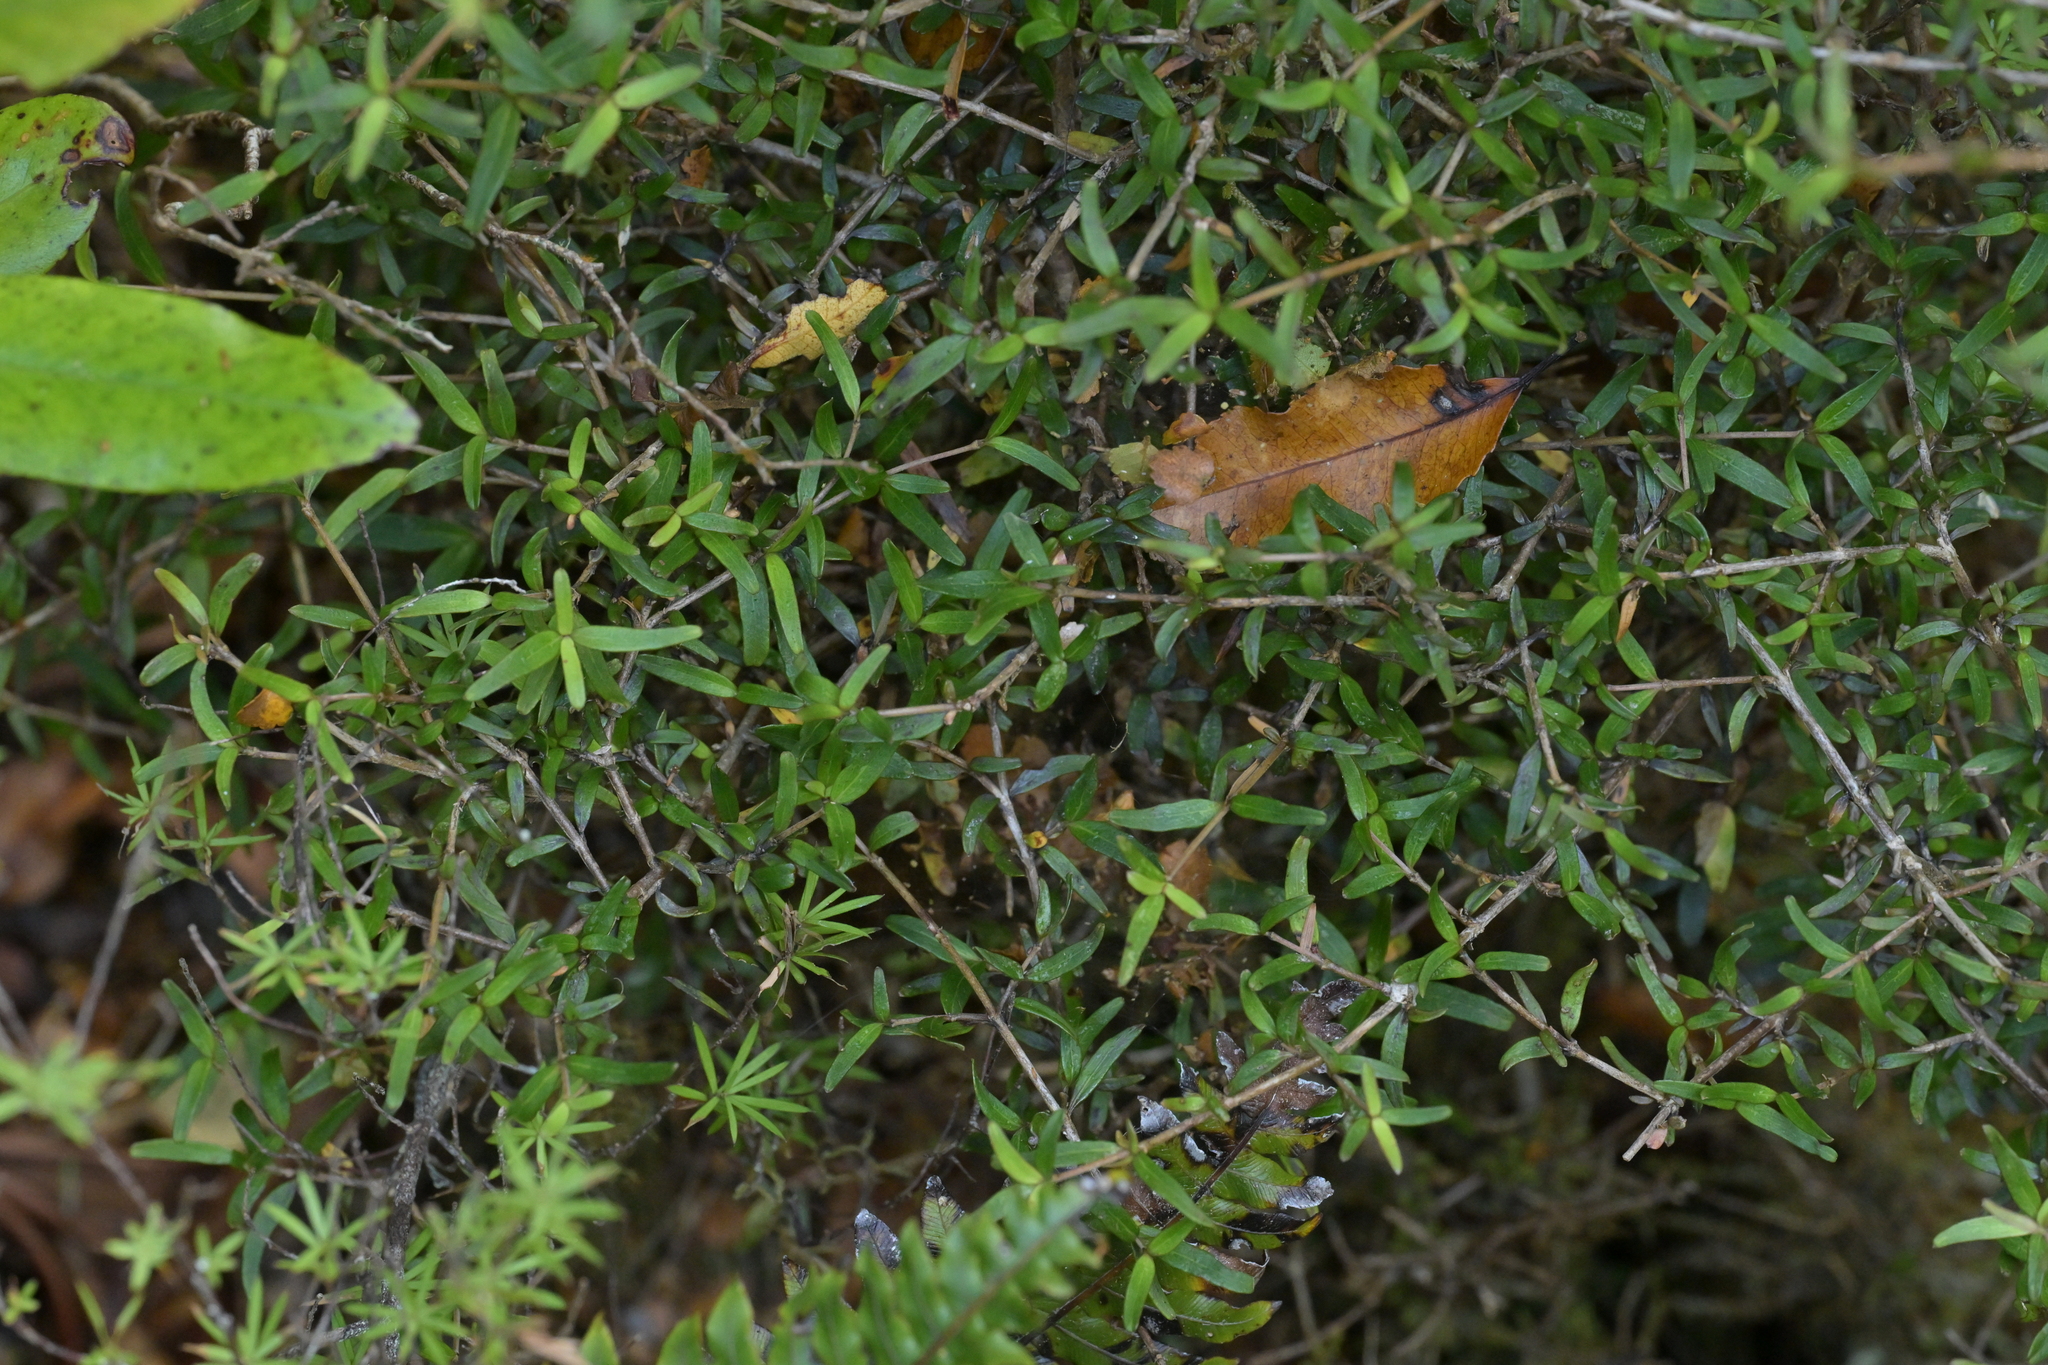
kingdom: Plantae
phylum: Tracheophyta
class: Magnoliopsida
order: Gentianales
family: Rubiaceae
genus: Coprosma
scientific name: Coprosma linariifolia
